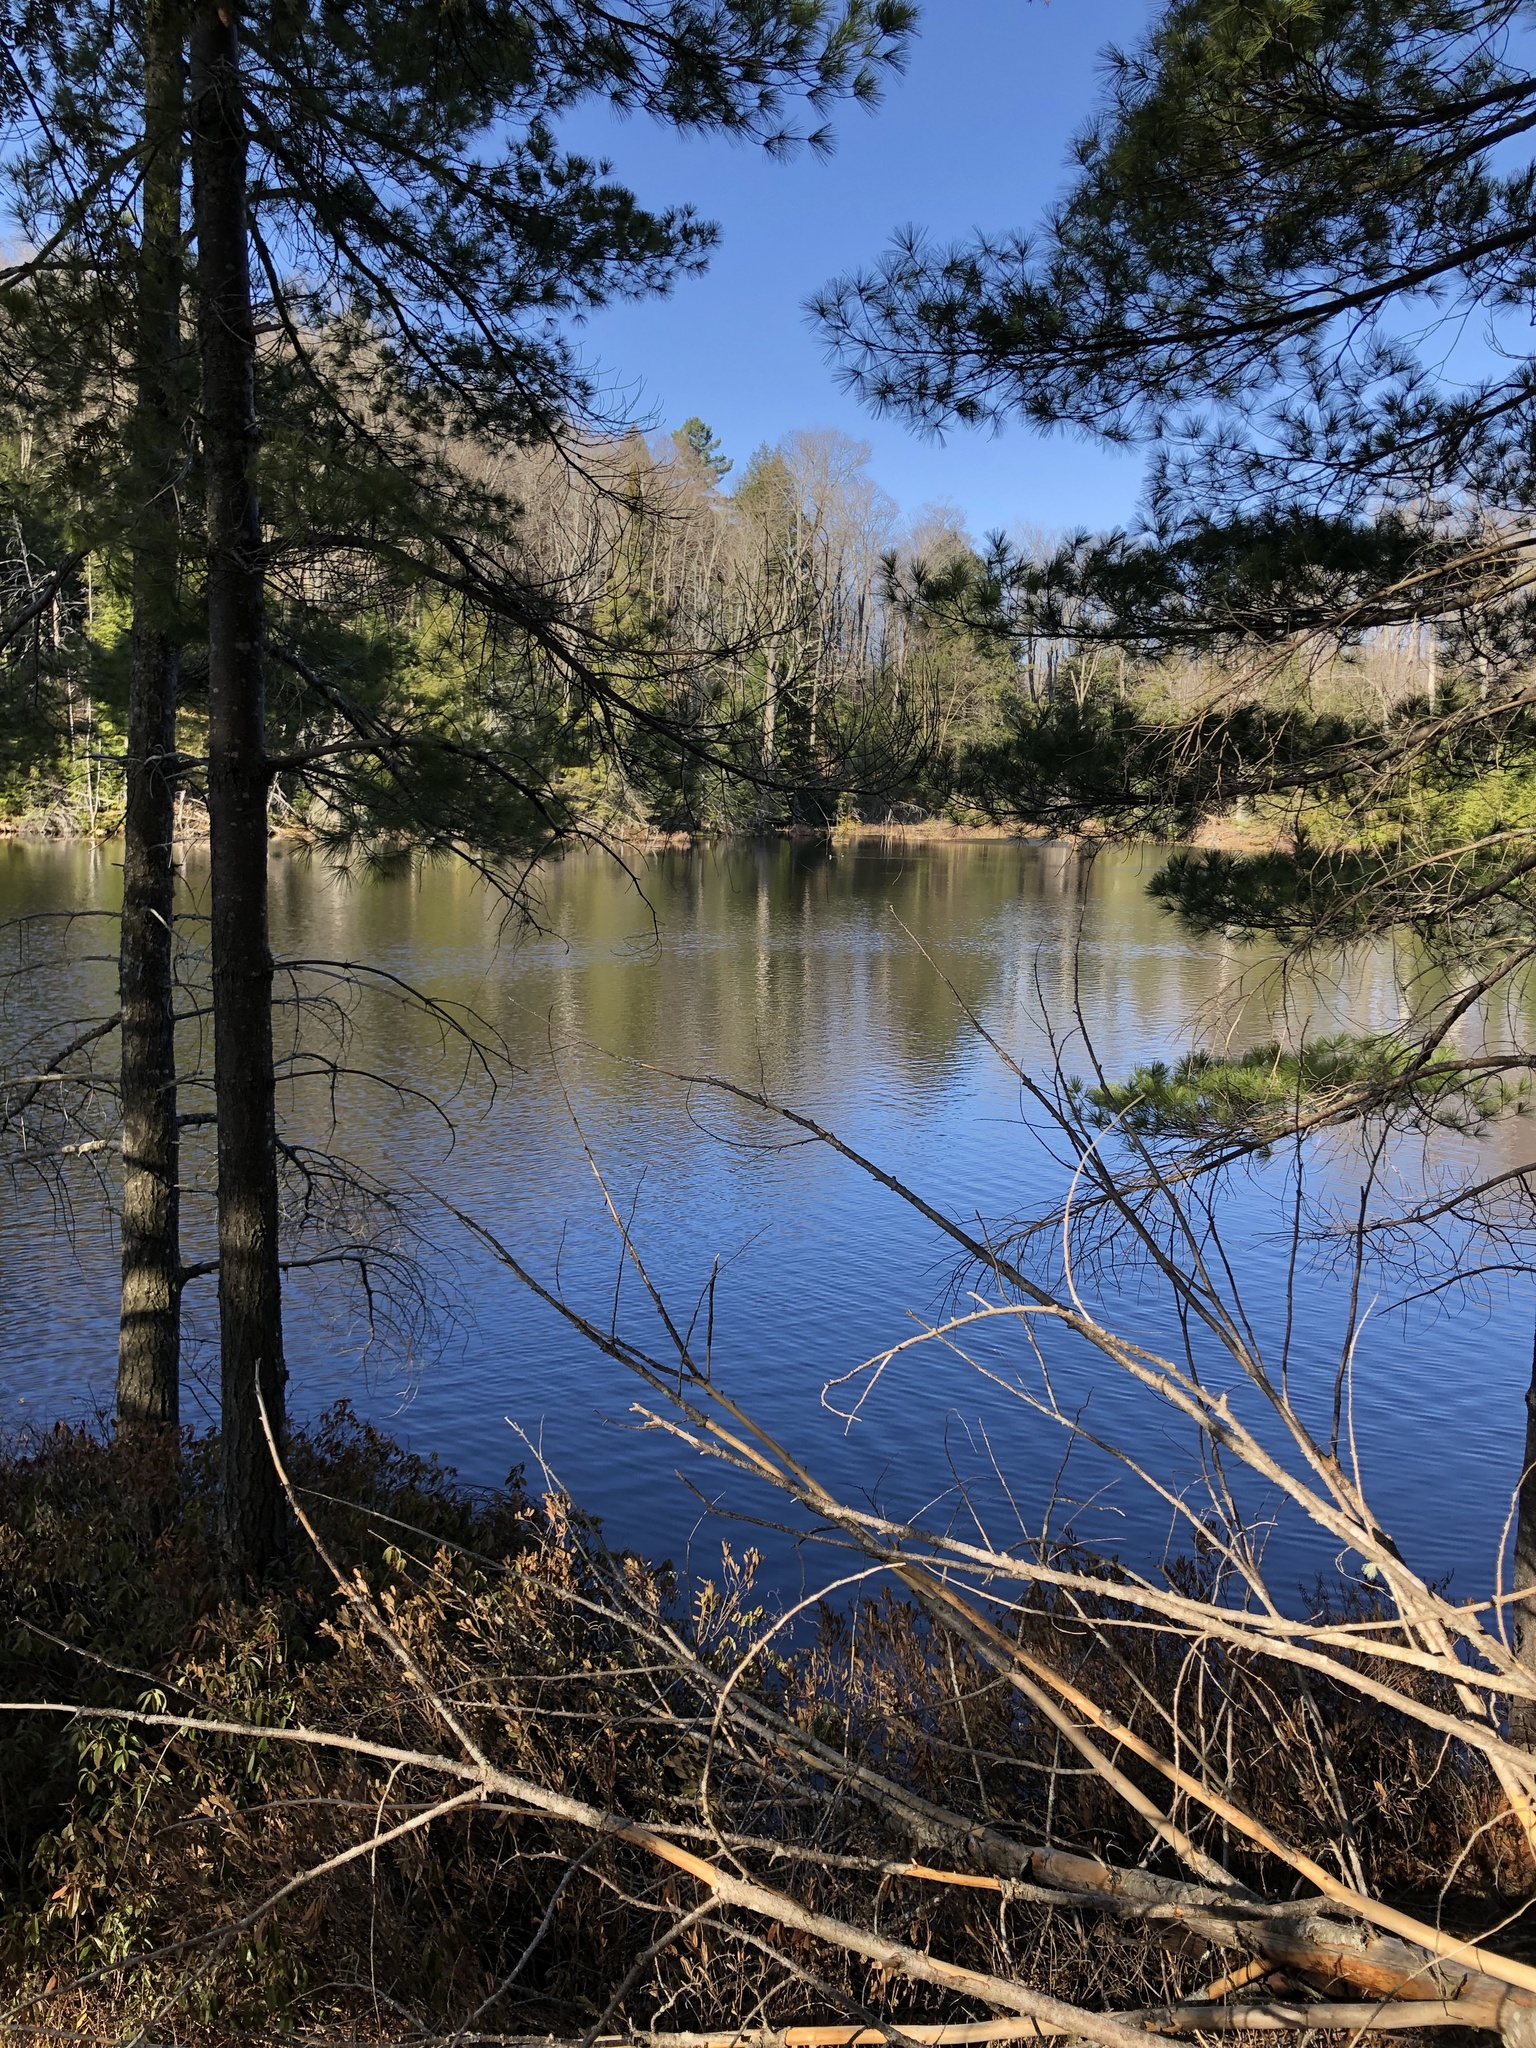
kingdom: Plantae
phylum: Tracheophyta
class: Pinopsida
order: Pinales
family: Pinaceae
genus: Pinus
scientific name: Pinus strobus
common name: Weymouth pine
